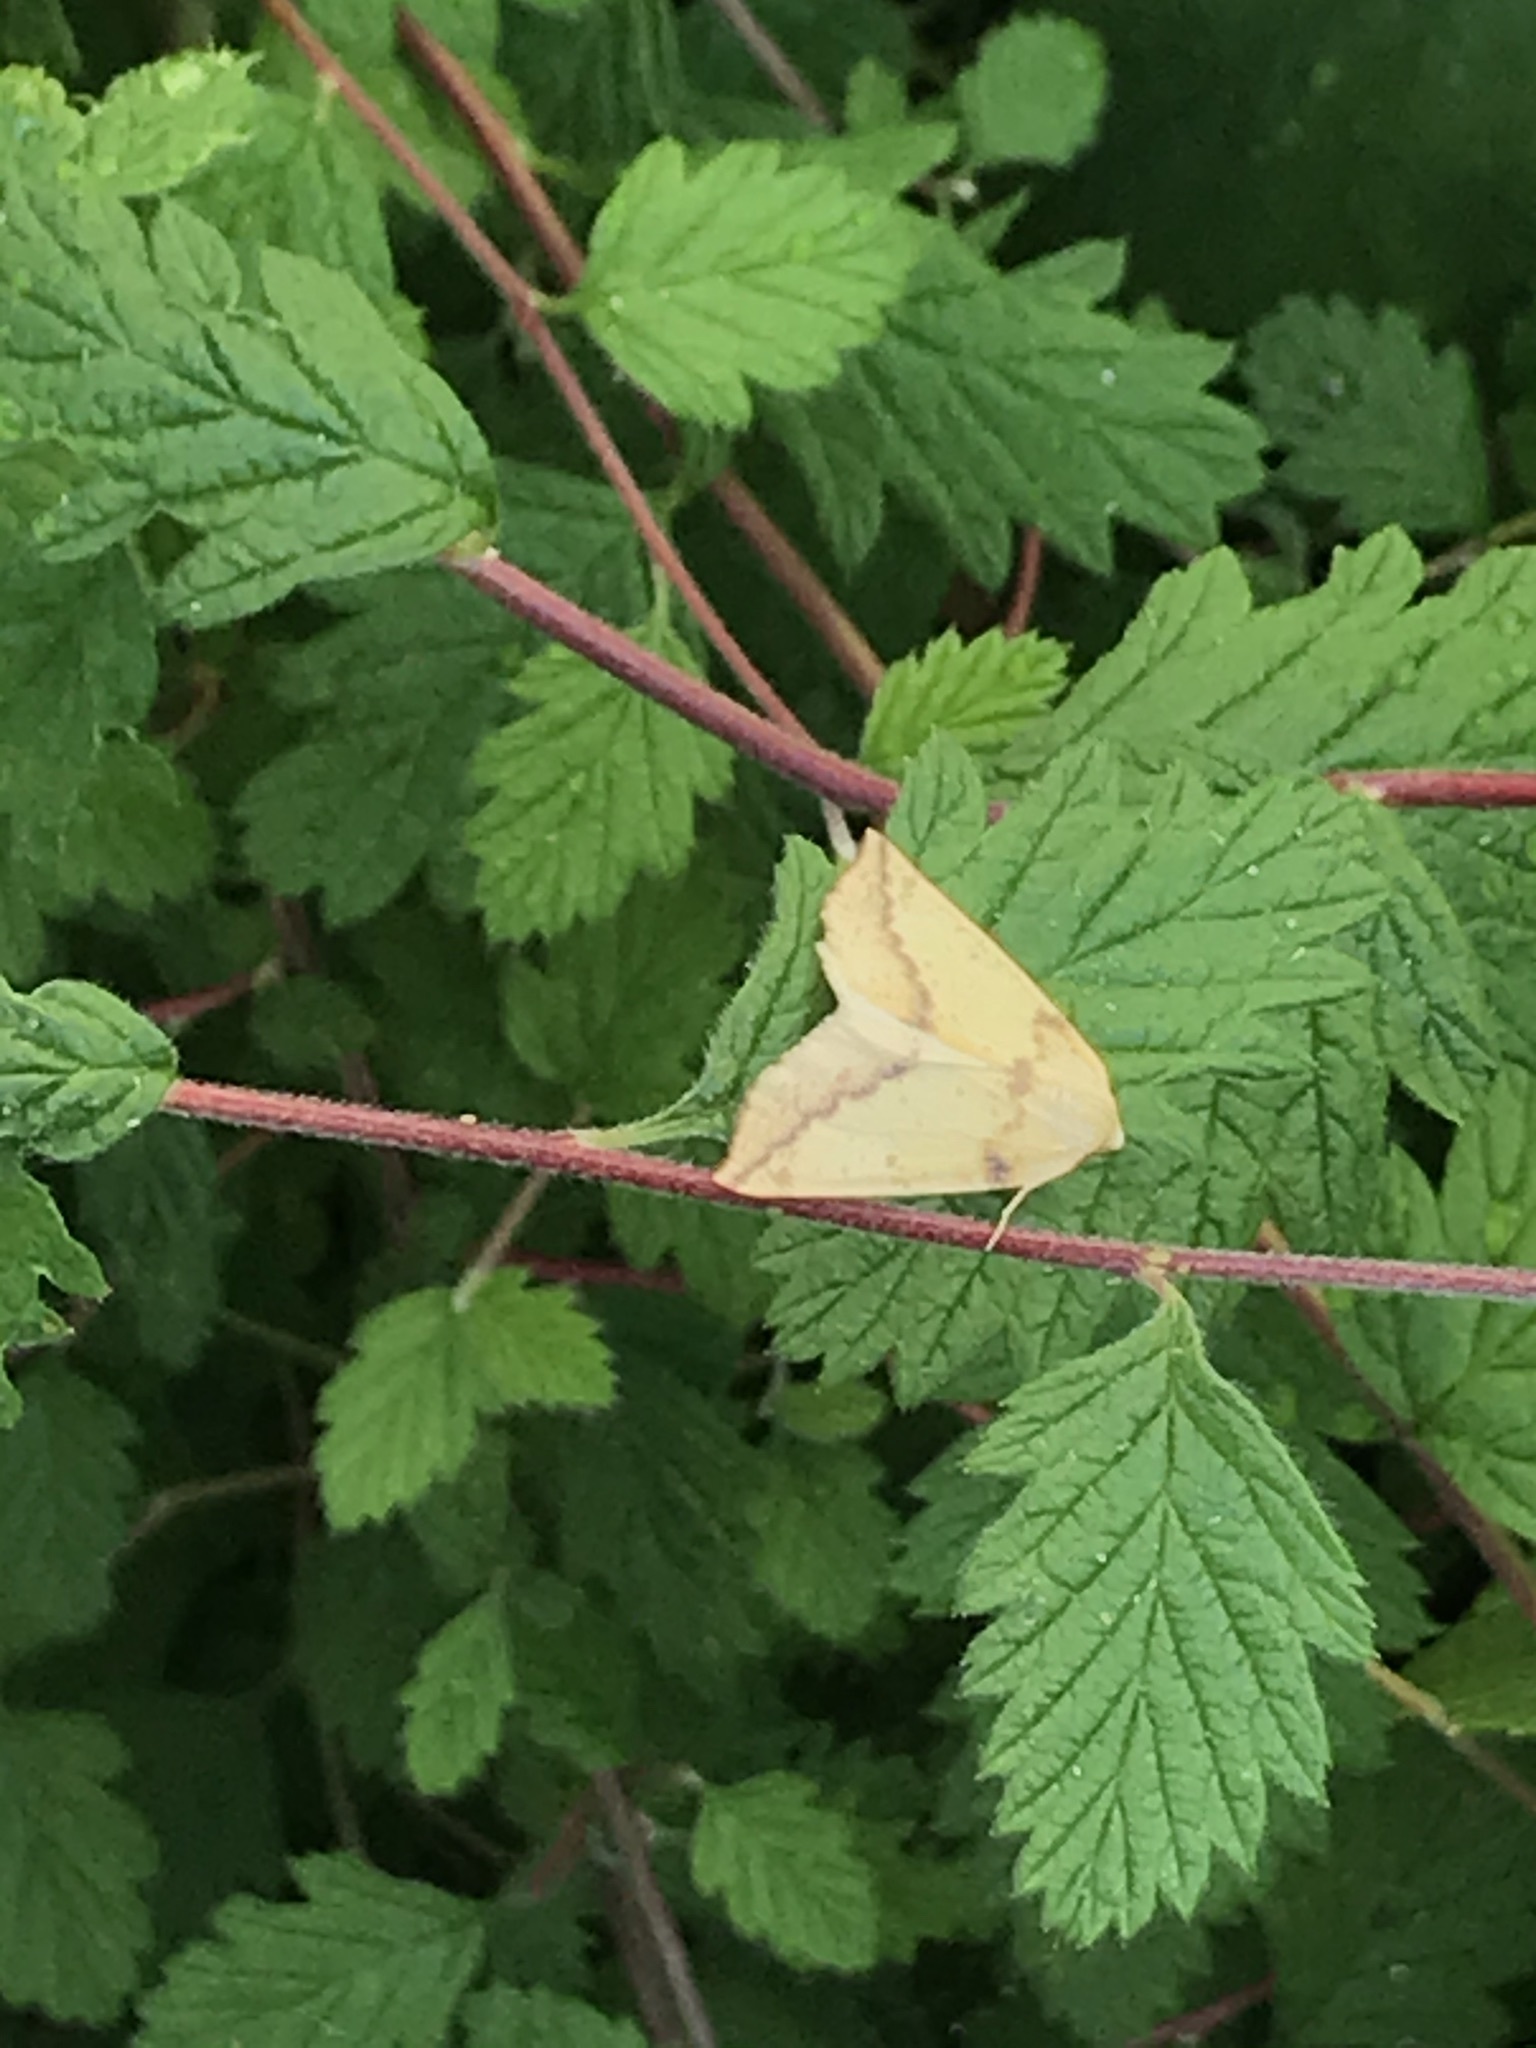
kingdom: Animalia
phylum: Arthropoda
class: Insecta
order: Lepidoptera
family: Geometridae
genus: Neoterpes
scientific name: Neoterpes edwardsata
